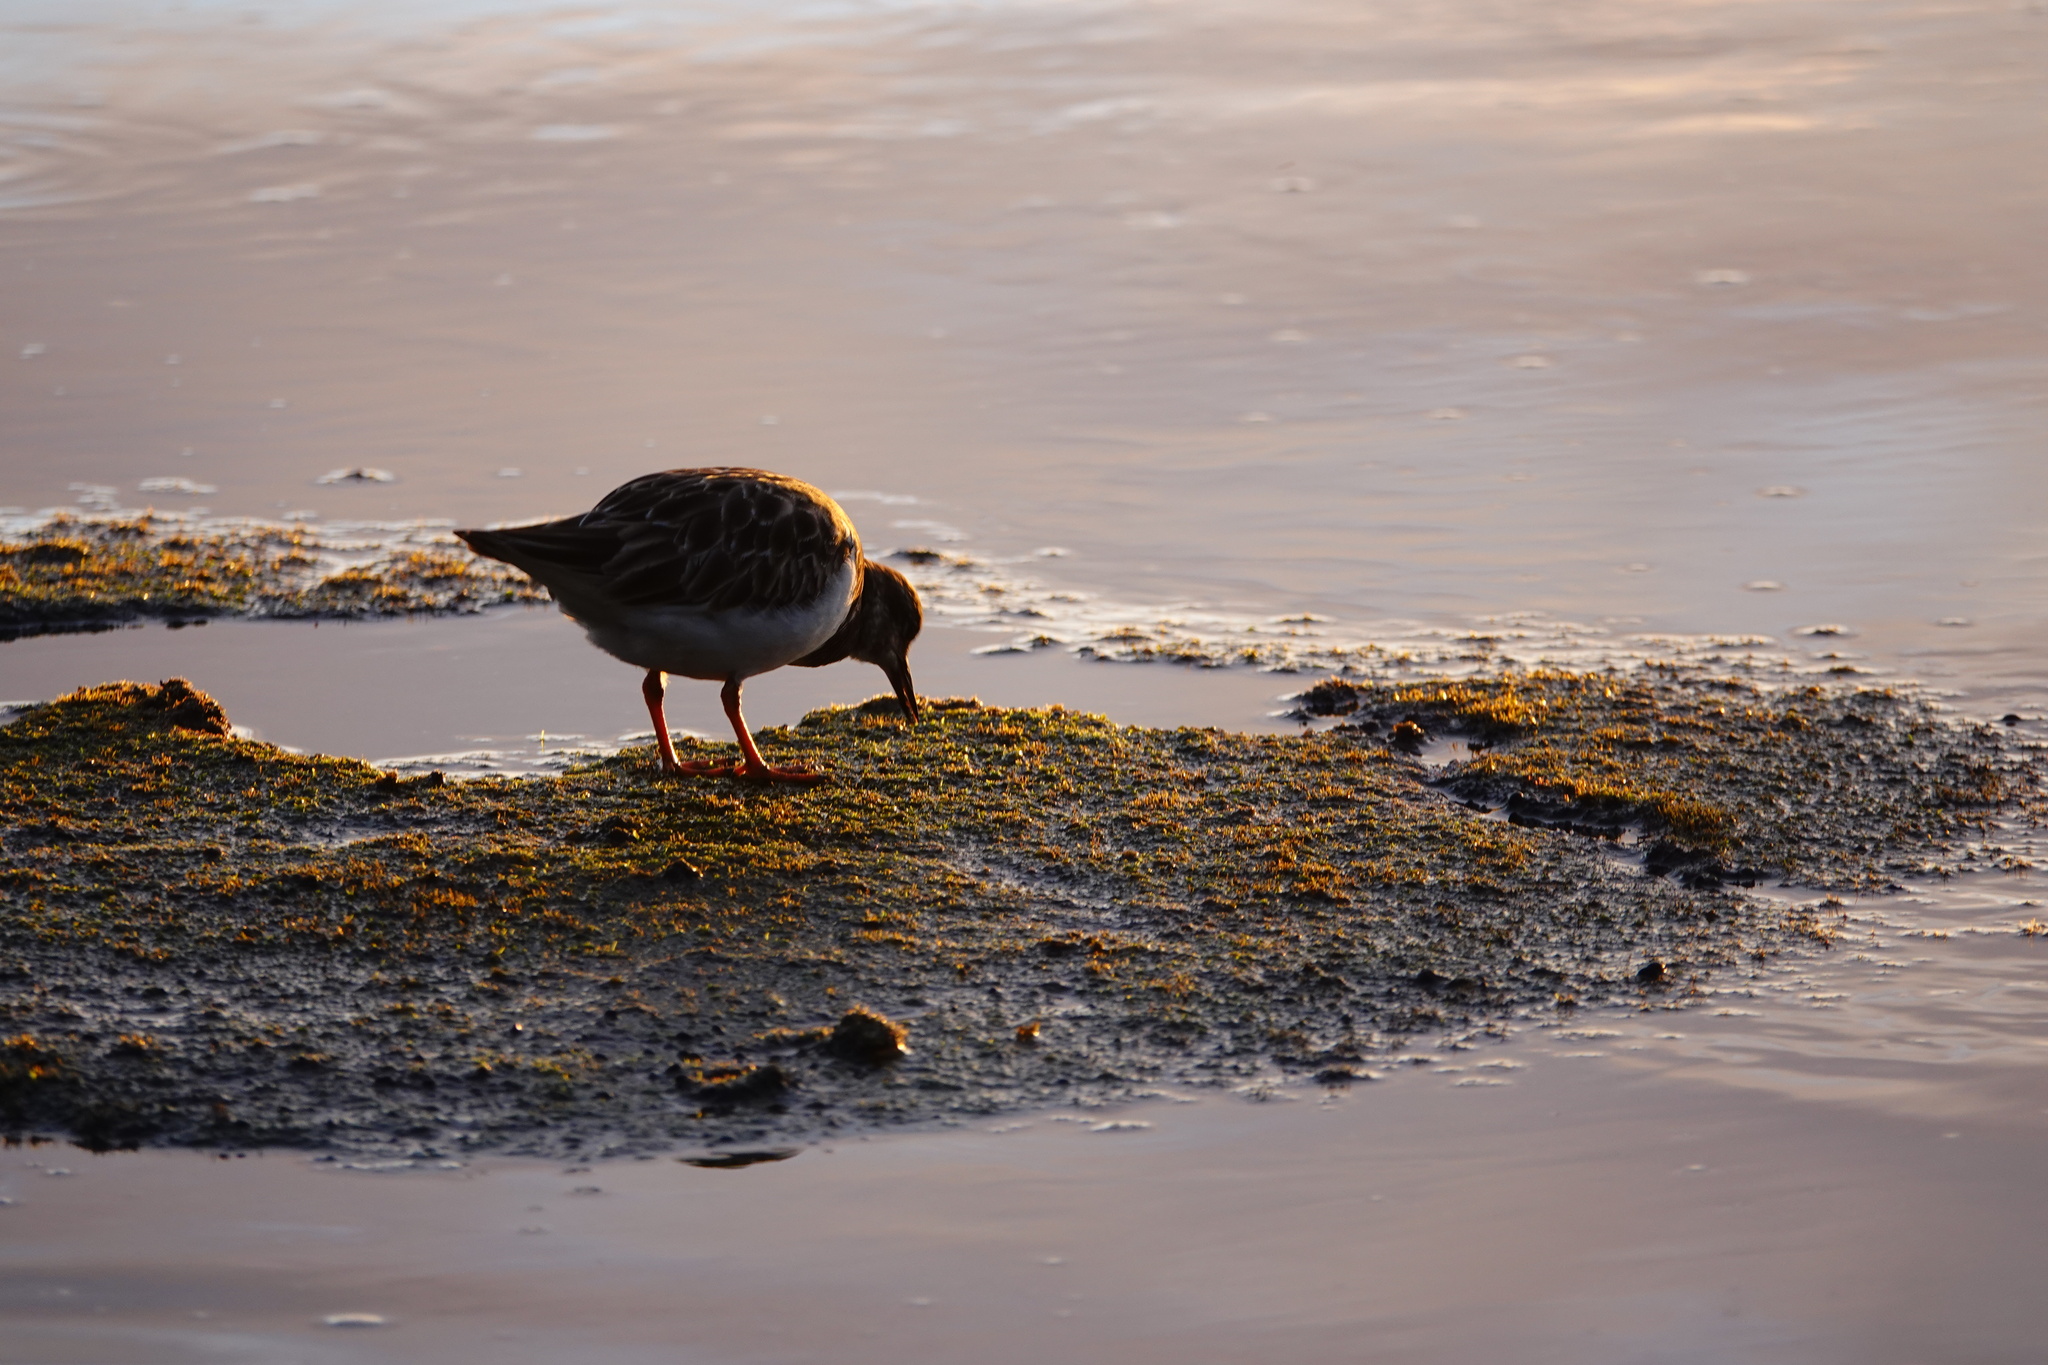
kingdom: Animalia
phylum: Chordata
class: Aves
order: Charadriiformes
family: Scolopacidae
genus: Arenaria
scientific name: Arenaria interpres
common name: Ruddy turnstone
